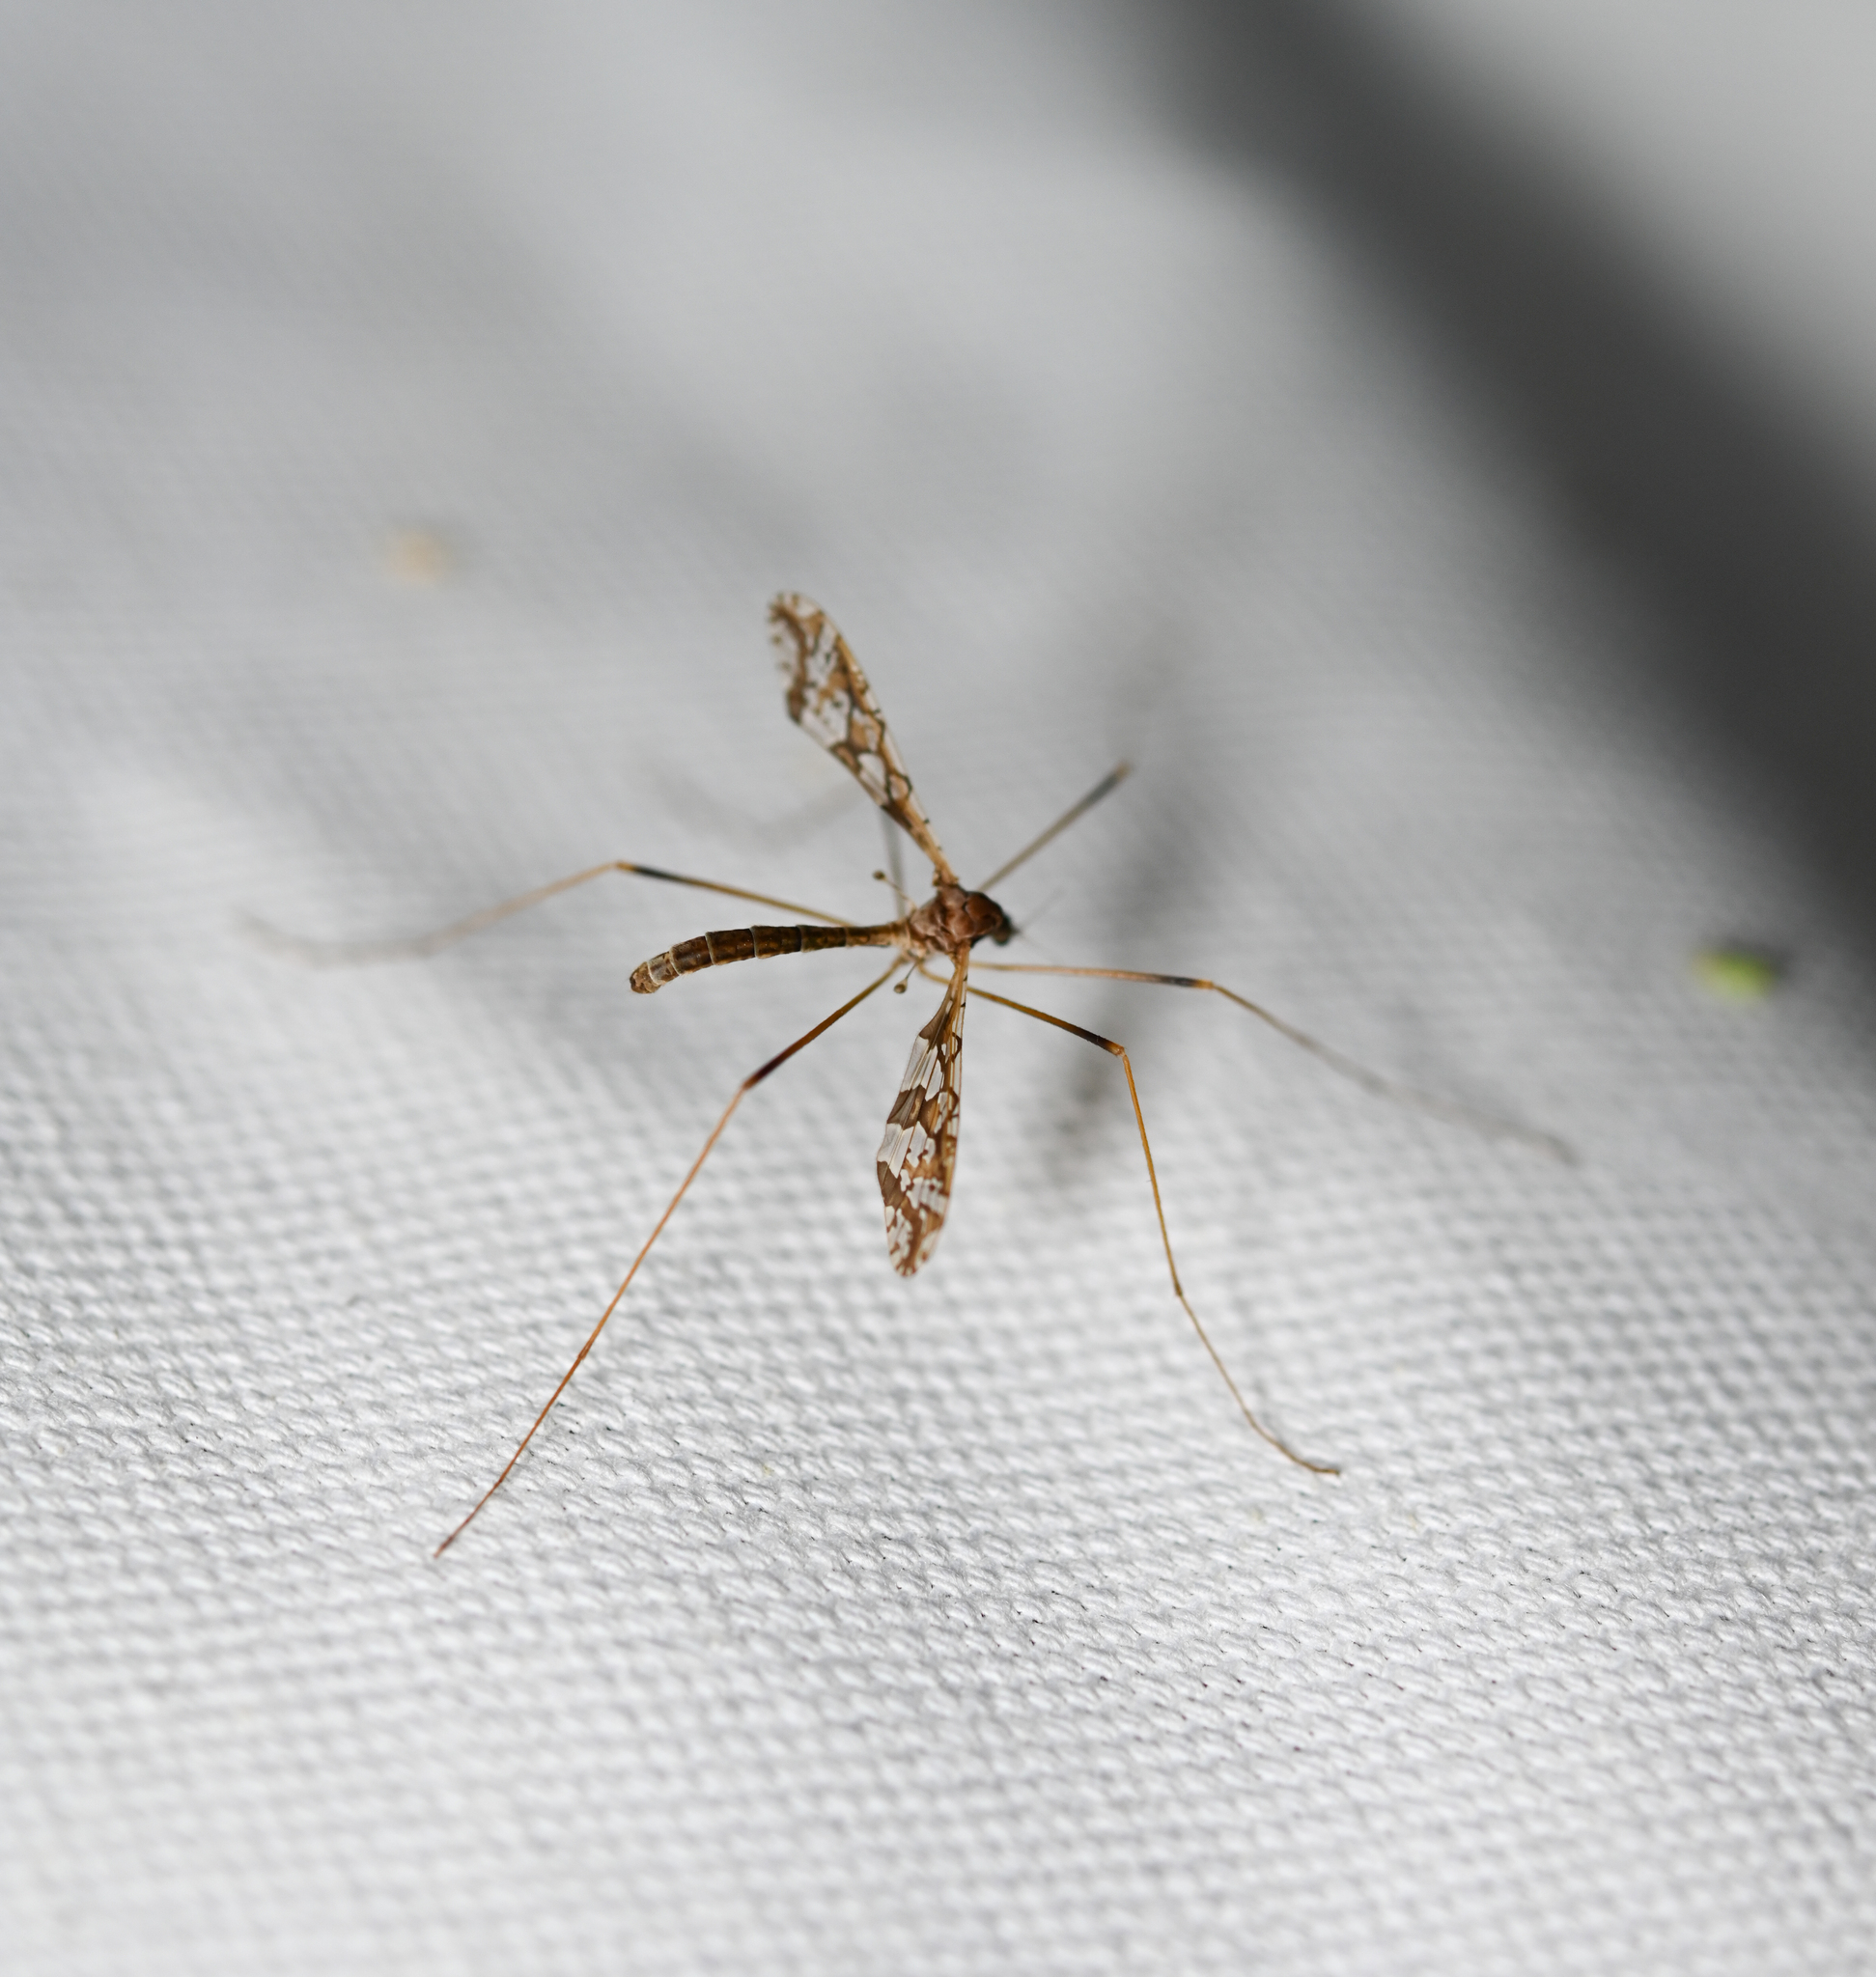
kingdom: Animalia
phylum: Arthropoda
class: Insecta
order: Diptera
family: Limoniidae
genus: Epiphragma
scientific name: Epiphragma solatrix
